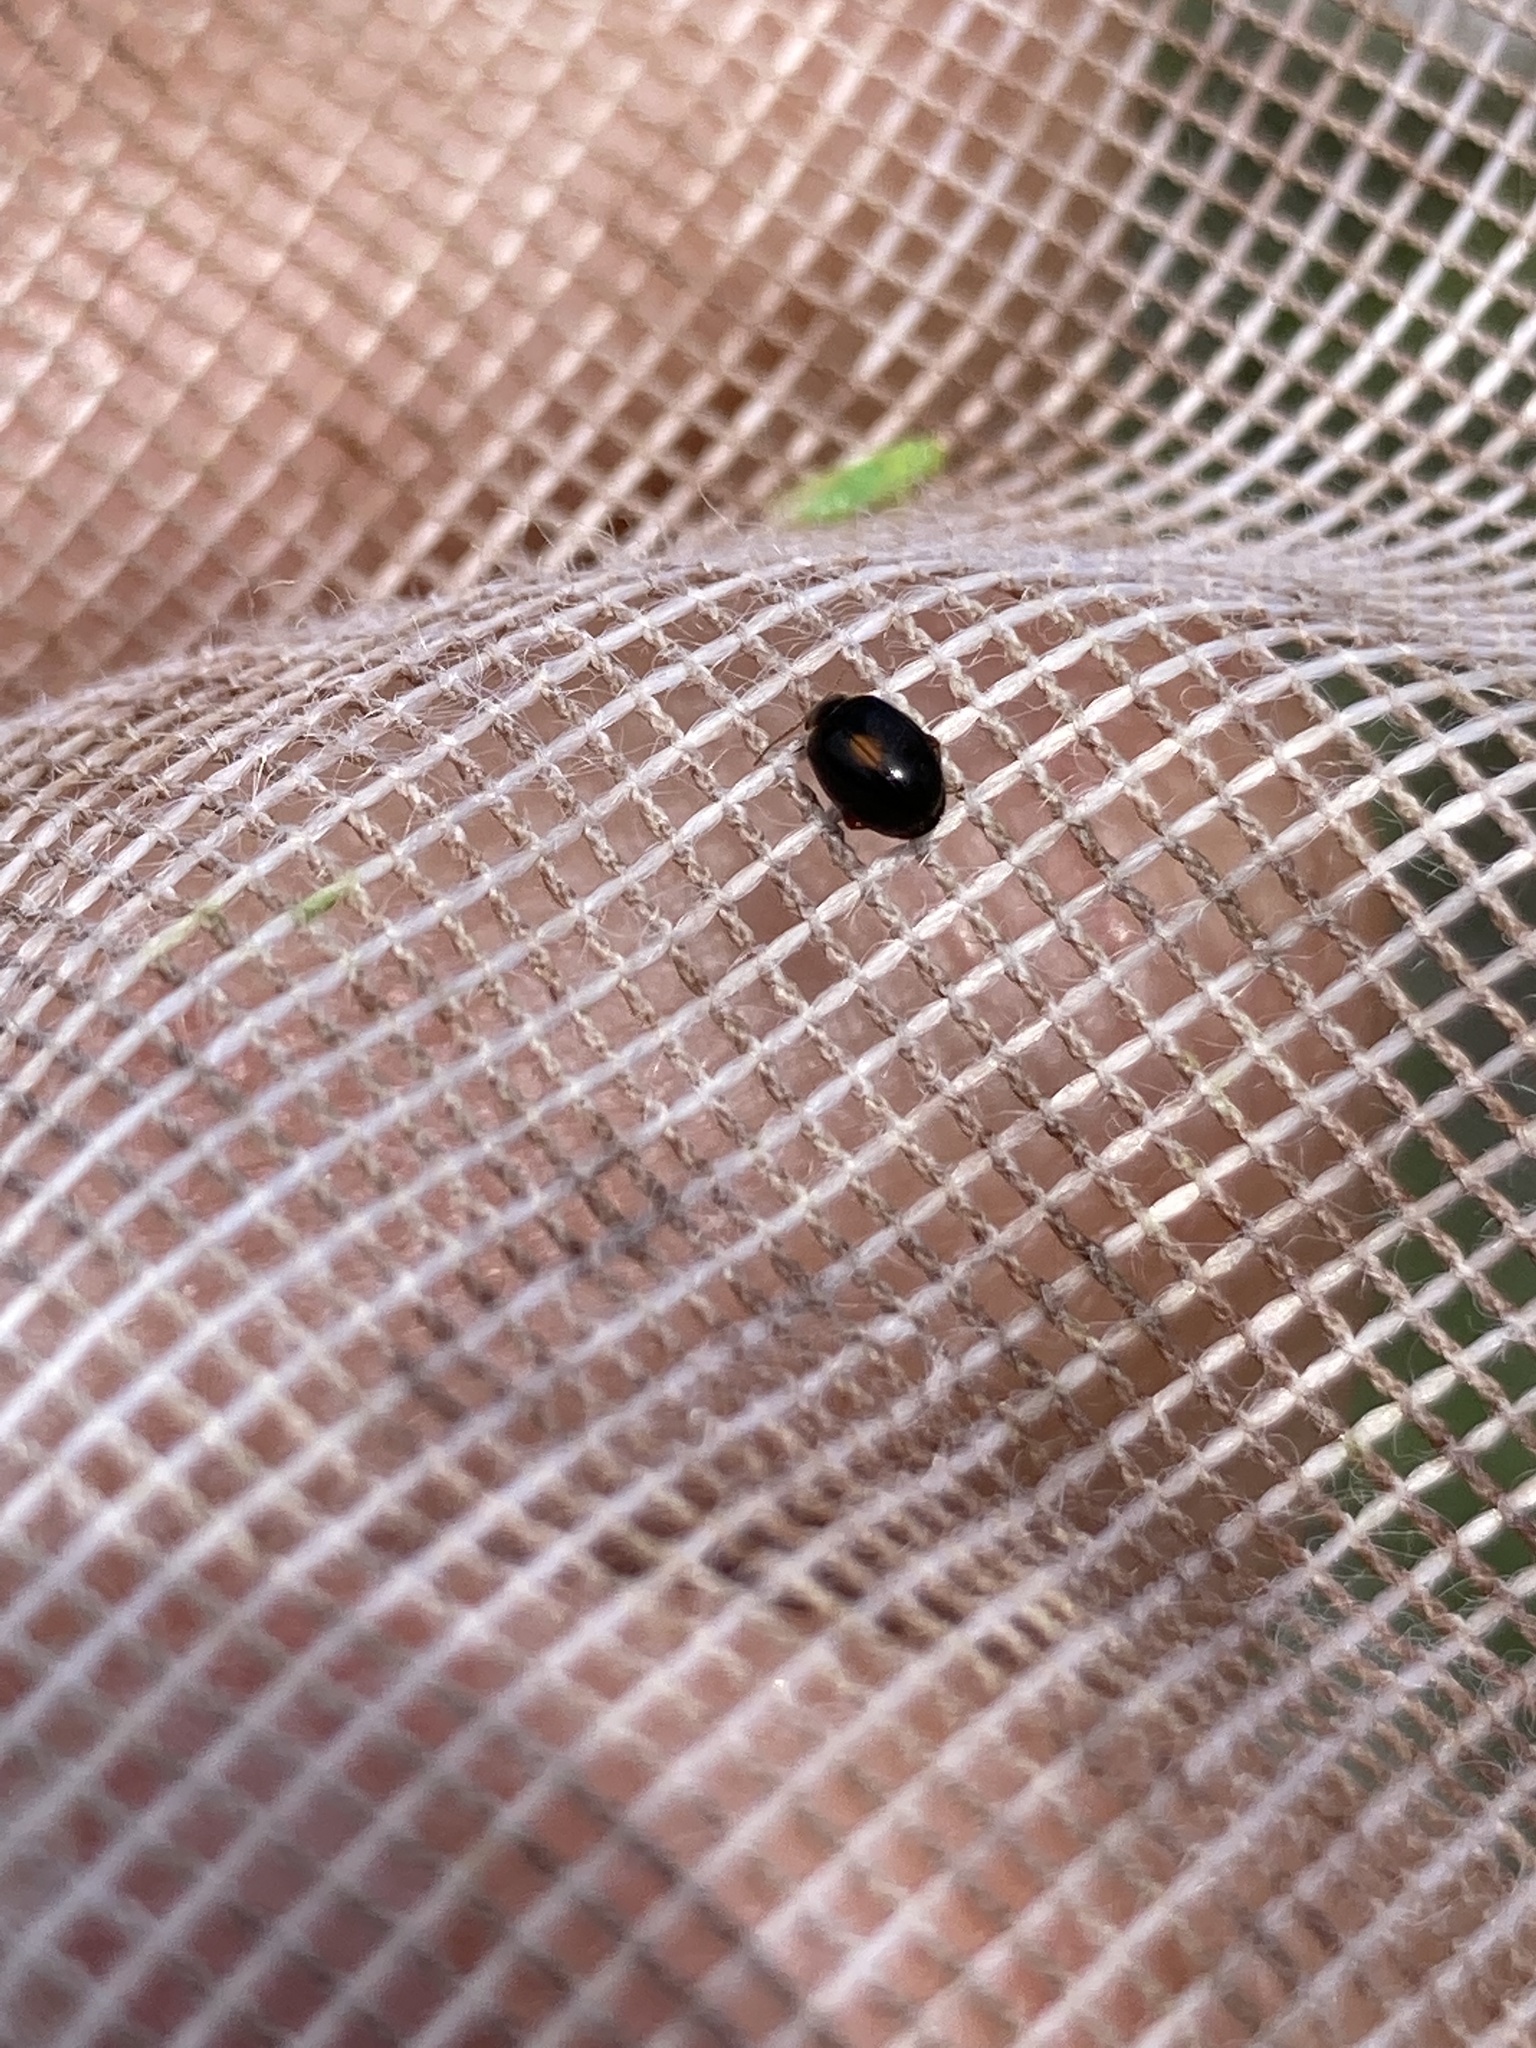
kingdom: Animalia
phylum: Arthropoda
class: Insecta
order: Coleoptera
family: Scirtidae
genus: Scirtes
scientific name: Scirtes orbiculatus
